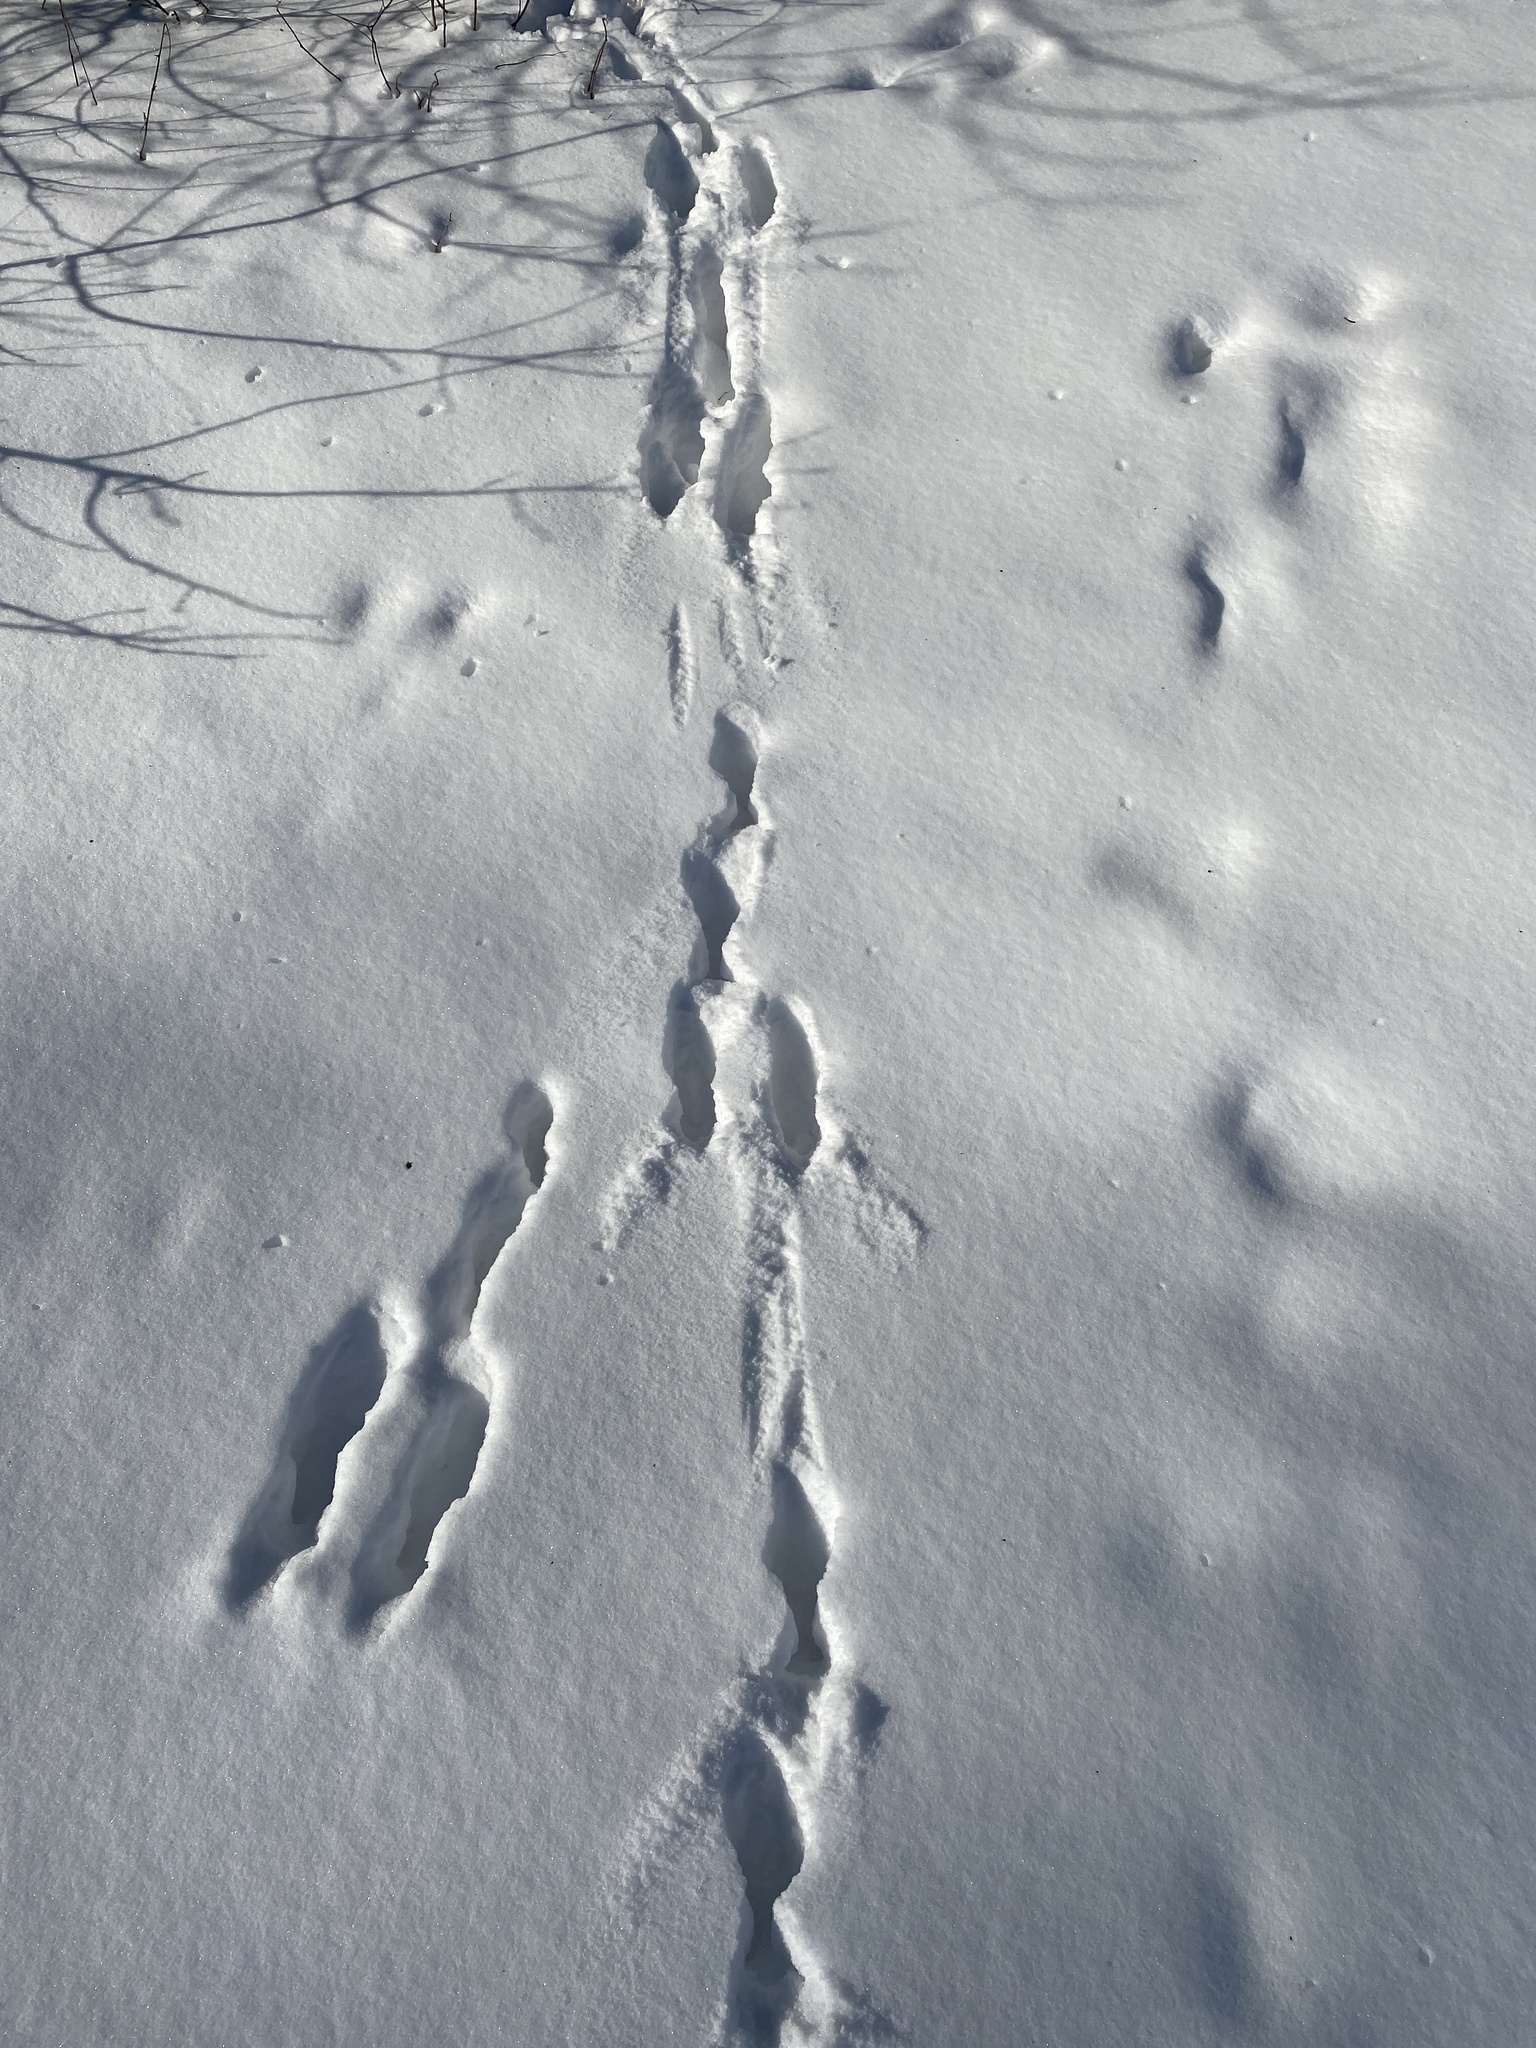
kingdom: Animalia
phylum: Chordata
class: Mammalia
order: Lagomorpha
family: Leporidae
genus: Lepus
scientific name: Lepus europaeus
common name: European hare
